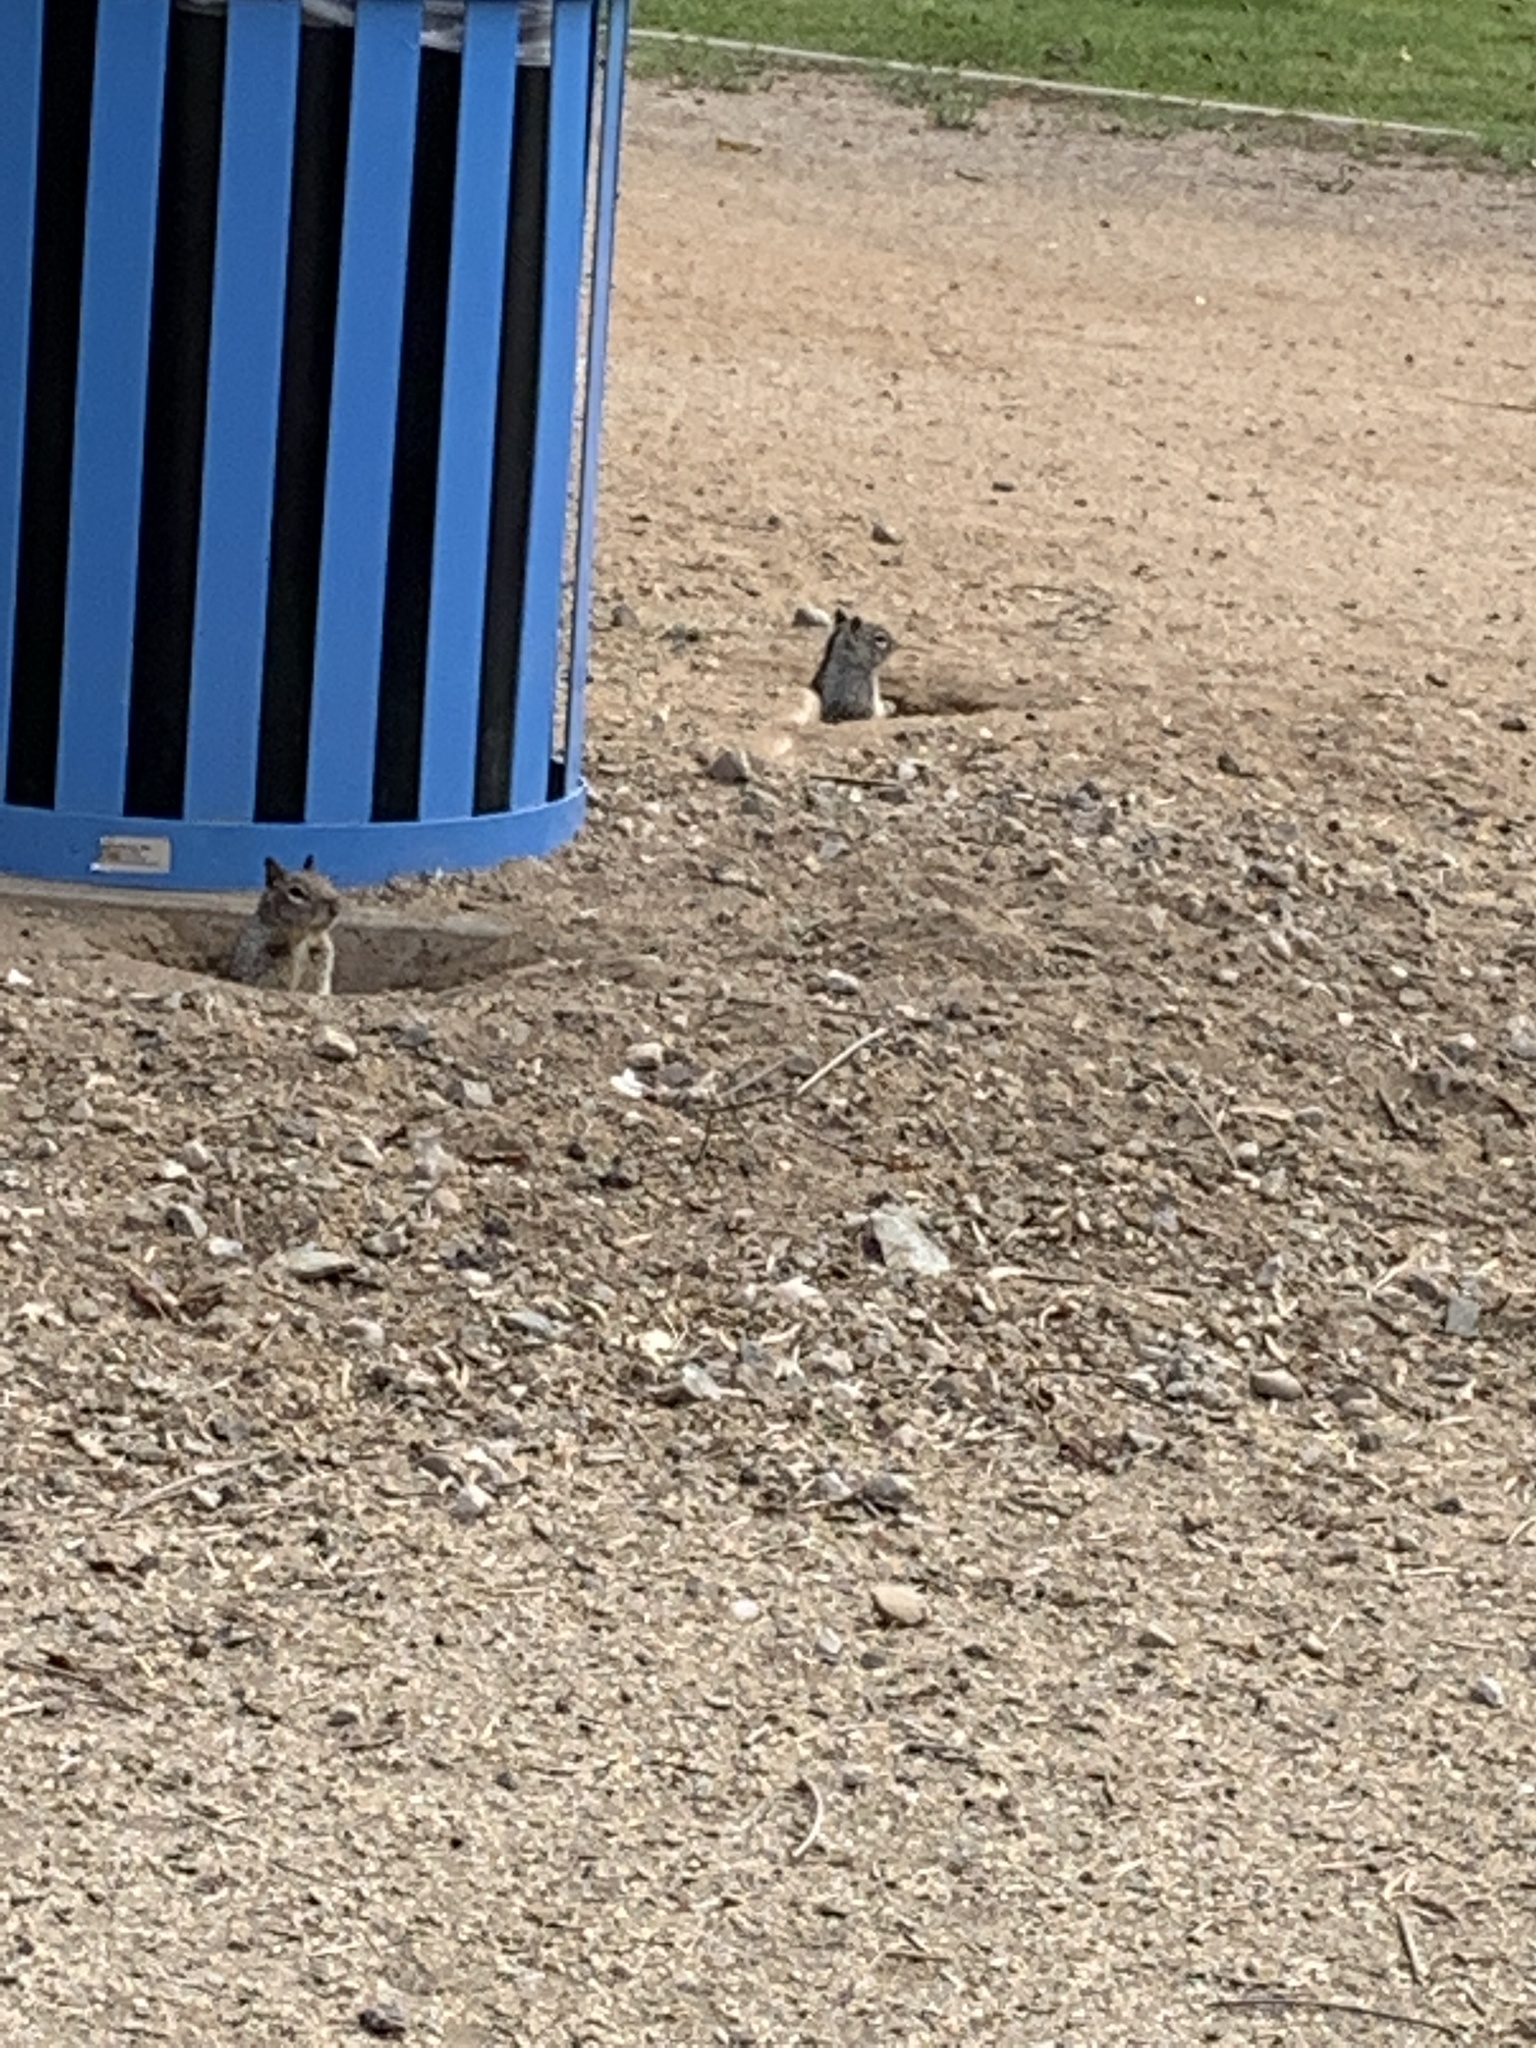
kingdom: Animalia
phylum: Chordata
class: Mammalia
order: Rodentia
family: Sciuridae
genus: Otospermophilus
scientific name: Otospermophilus beecheyi
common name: California ground squirrel
